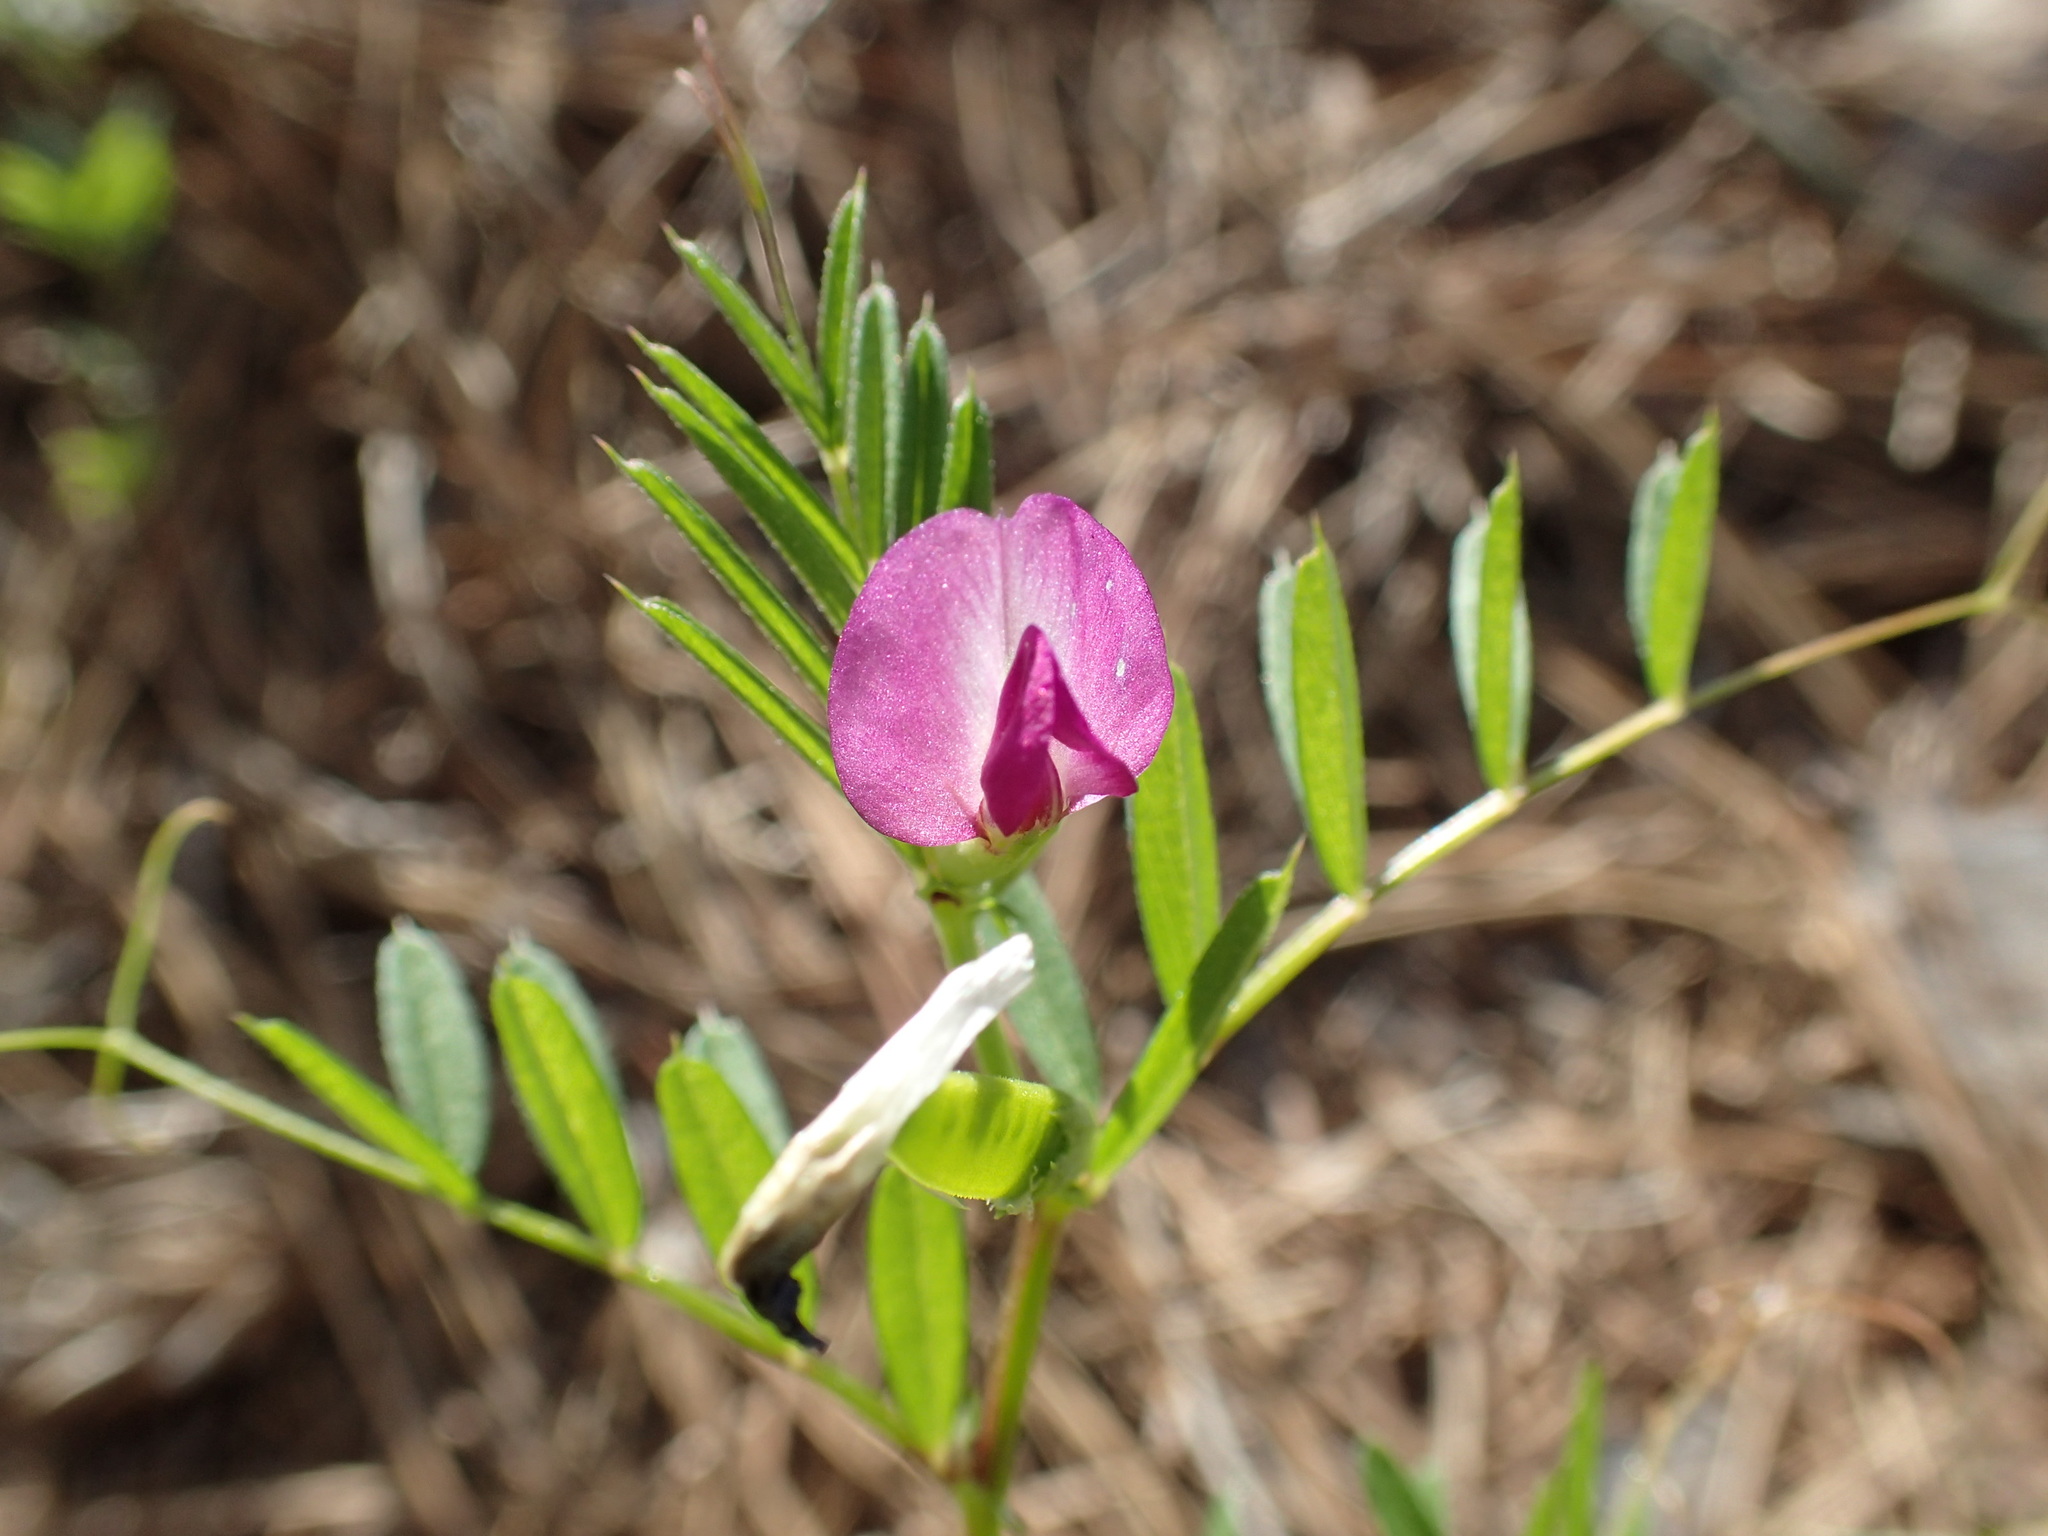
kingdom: Plantae
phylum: Tracheophyta
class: Magnoliopsida
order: Fabales
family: Fabaceae
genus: Vicia
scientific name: Vicia sativa
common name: Garden vetch
